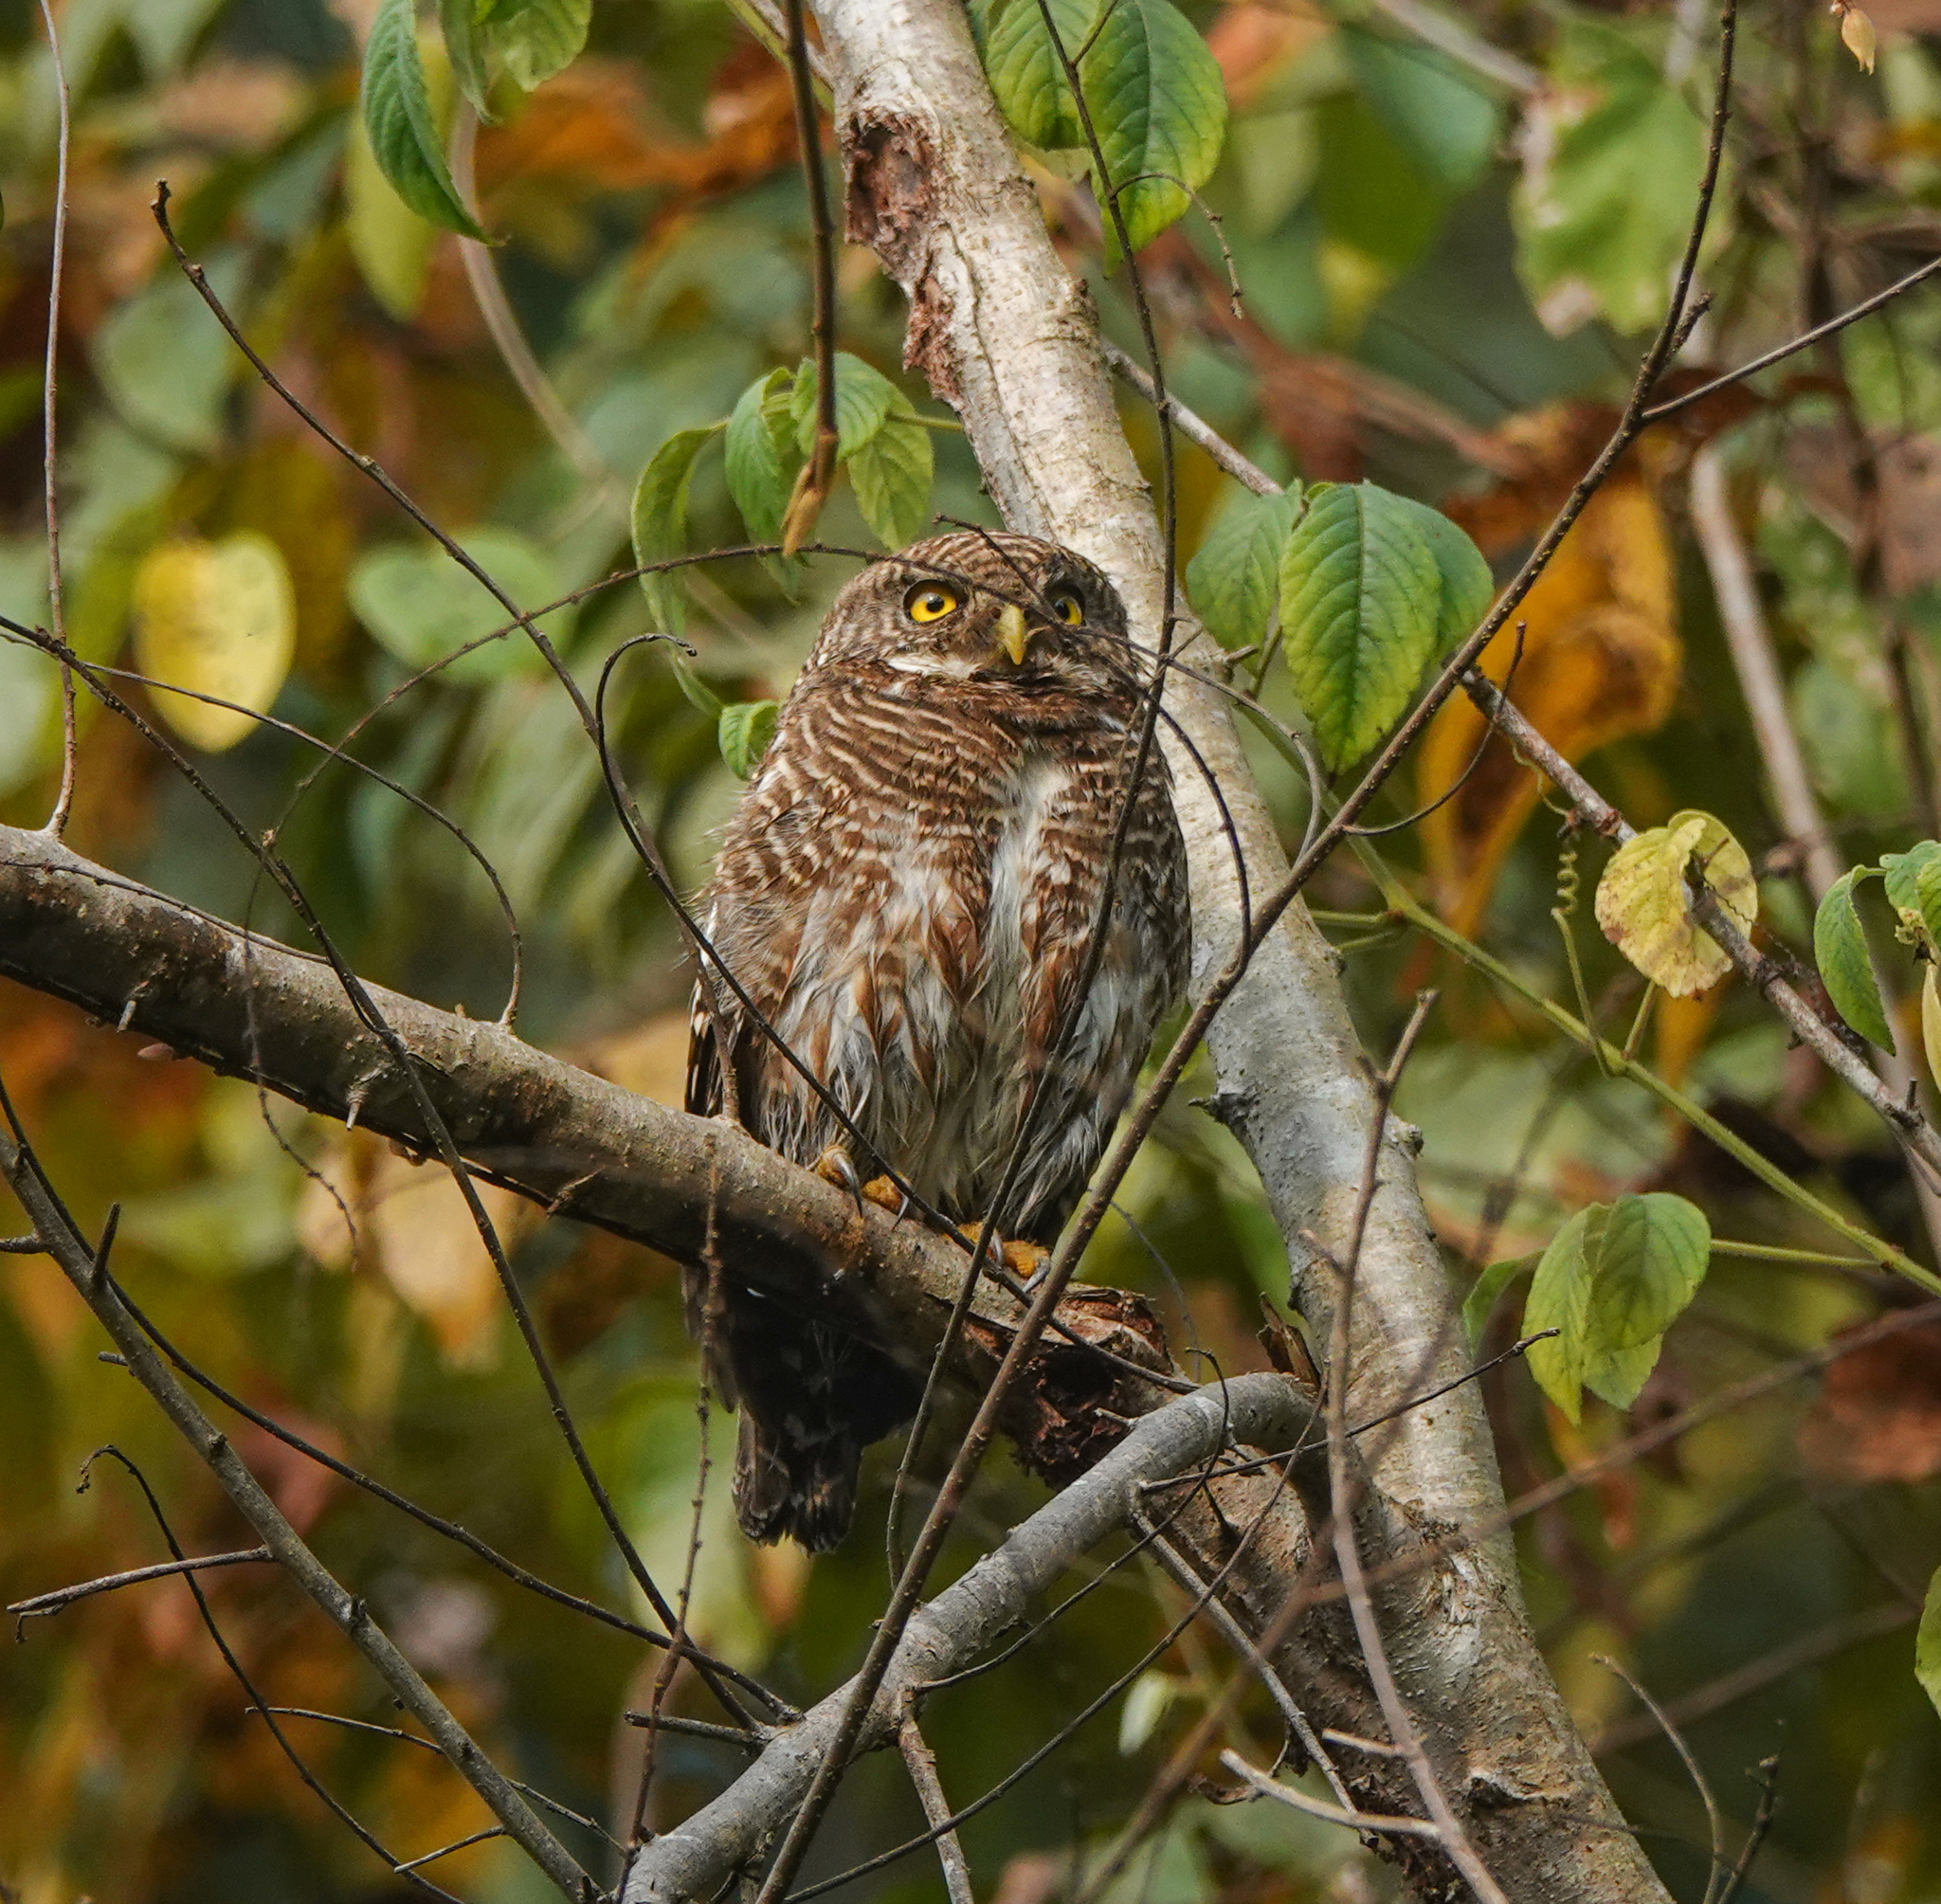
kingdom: Animalia
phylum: Chordata
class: Aves
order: Strigiformes
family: Strigidae
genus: Glaucidium
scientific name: Glaucidium cuculoides
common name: Asian barred owlet
